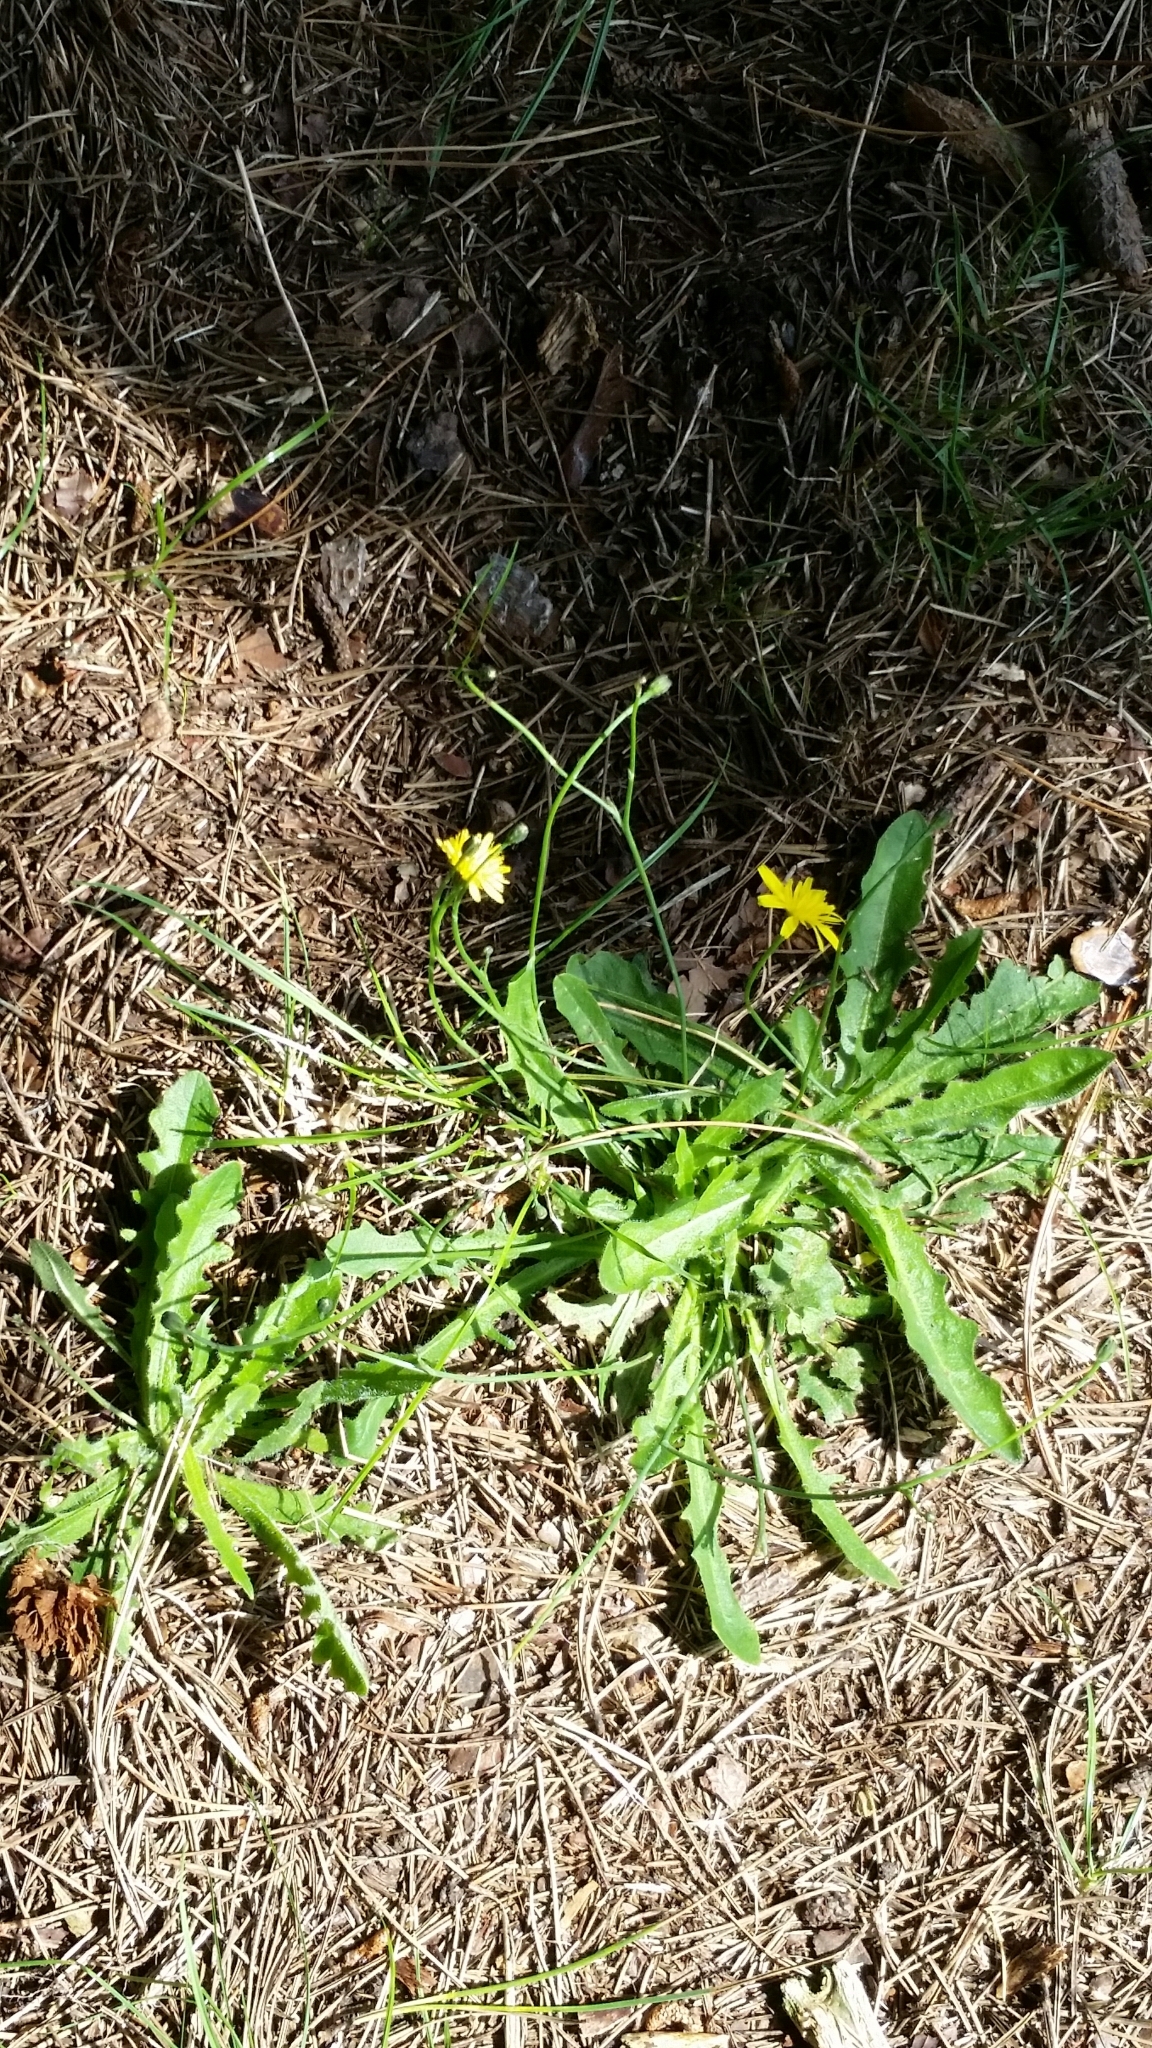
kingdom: Plantae
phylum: Tracheophyta
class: Magnoliopsida
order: Asterales
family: Asteraceae
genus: Hypochaeris
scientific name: Hypochaeris radicata
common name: Flatweed
